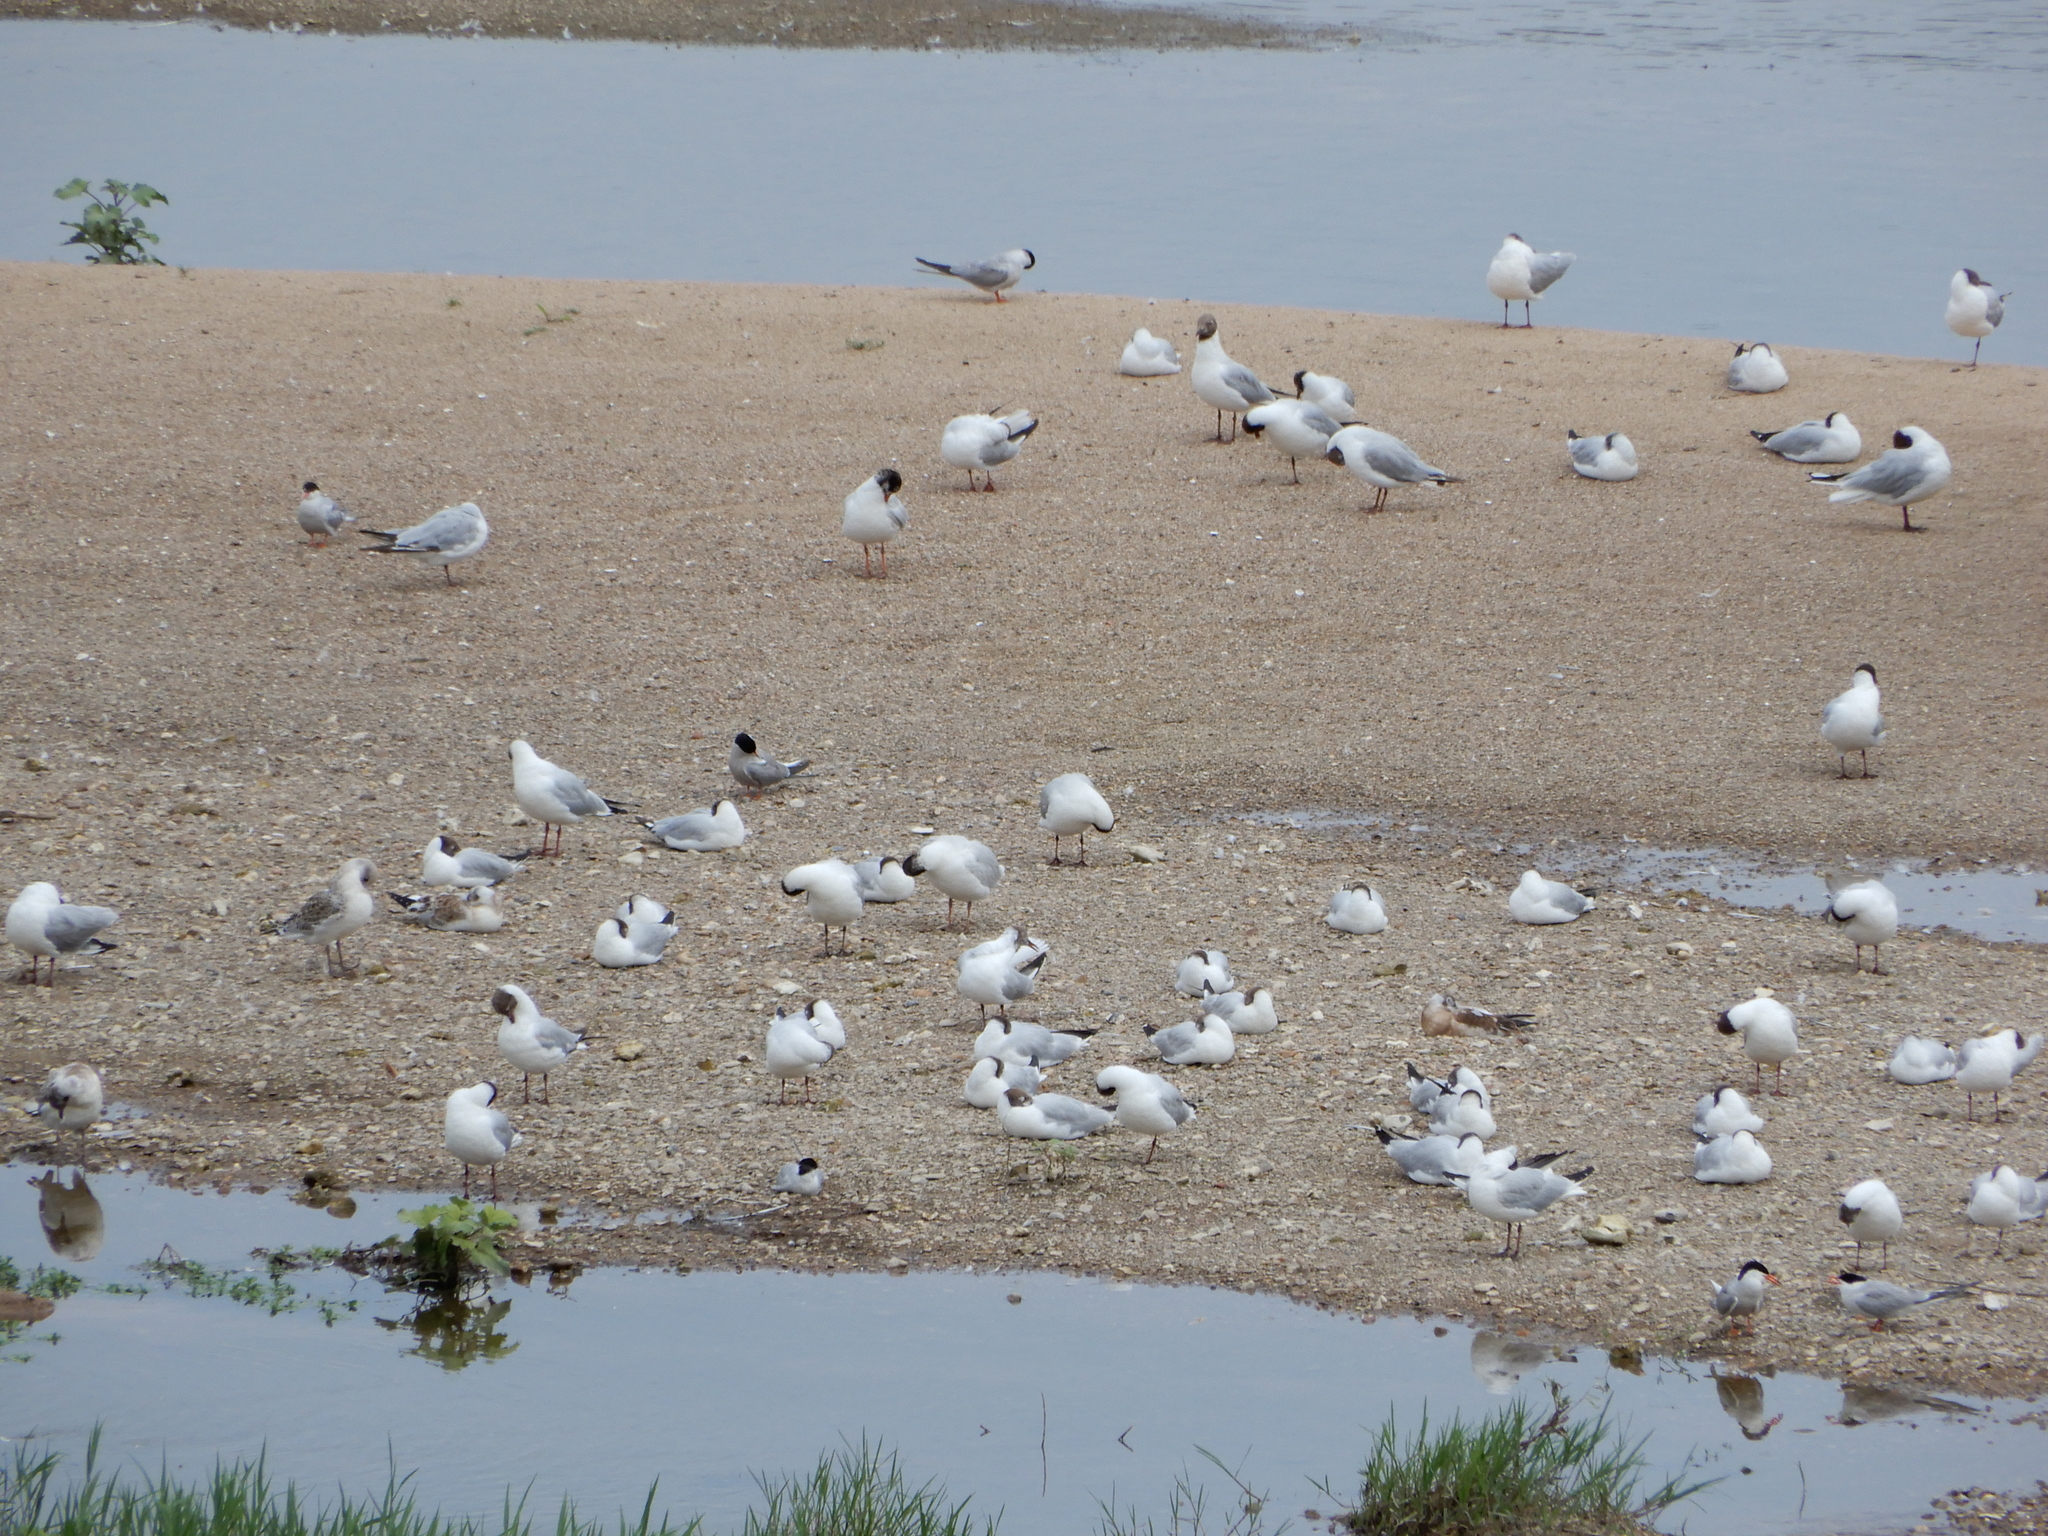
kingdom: Animalia
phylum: Chordata
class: Aves
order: Charadriiformes
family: Laridae
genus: Chroicocephalus
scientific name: Chroicocephalus ridibundus
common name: Black-headed gull
